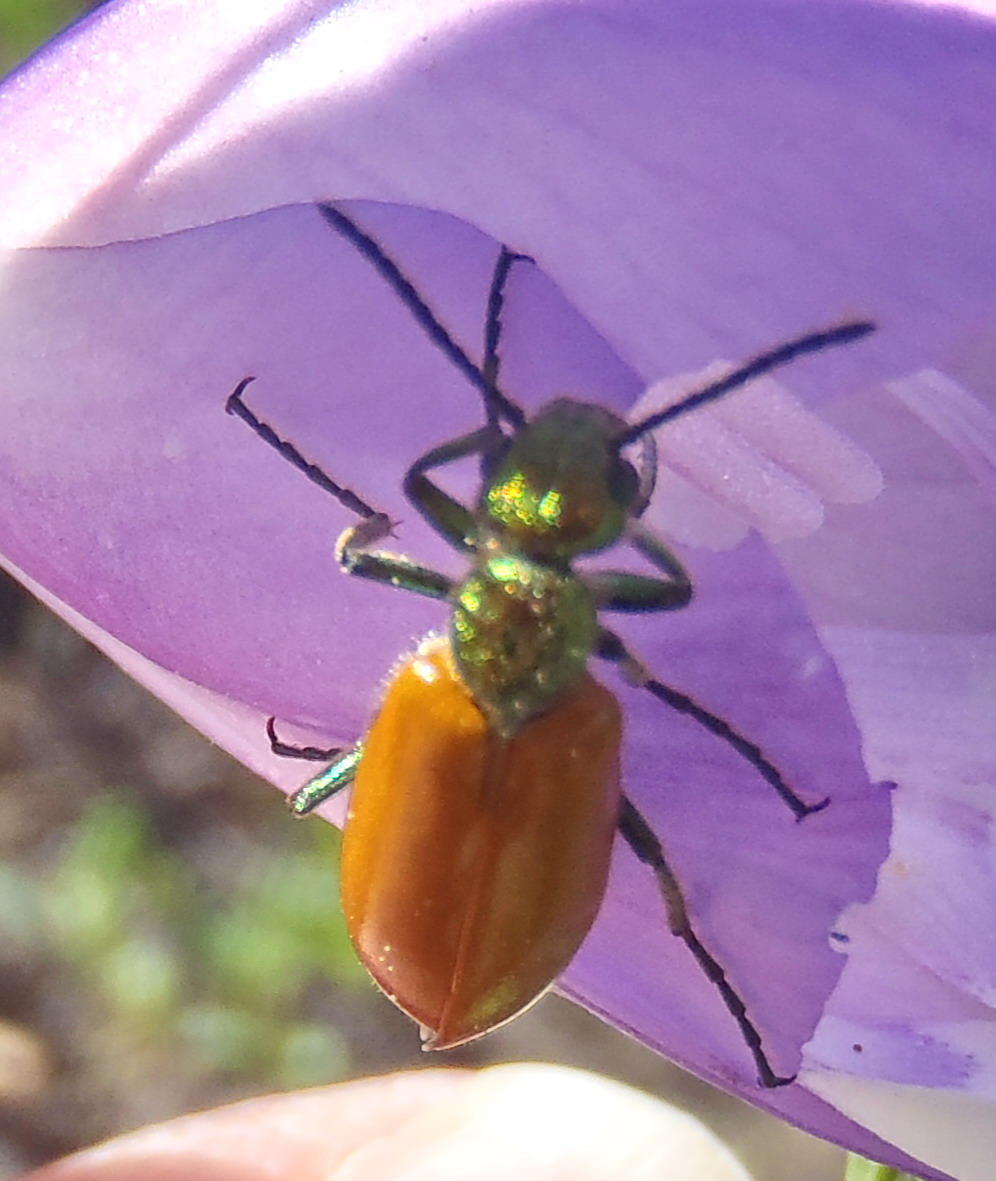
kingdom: Animalia
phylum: Arthropoda
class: Insecta
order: Coleoptera
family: Meloidae
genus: Prolytta
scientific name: Prolytta
